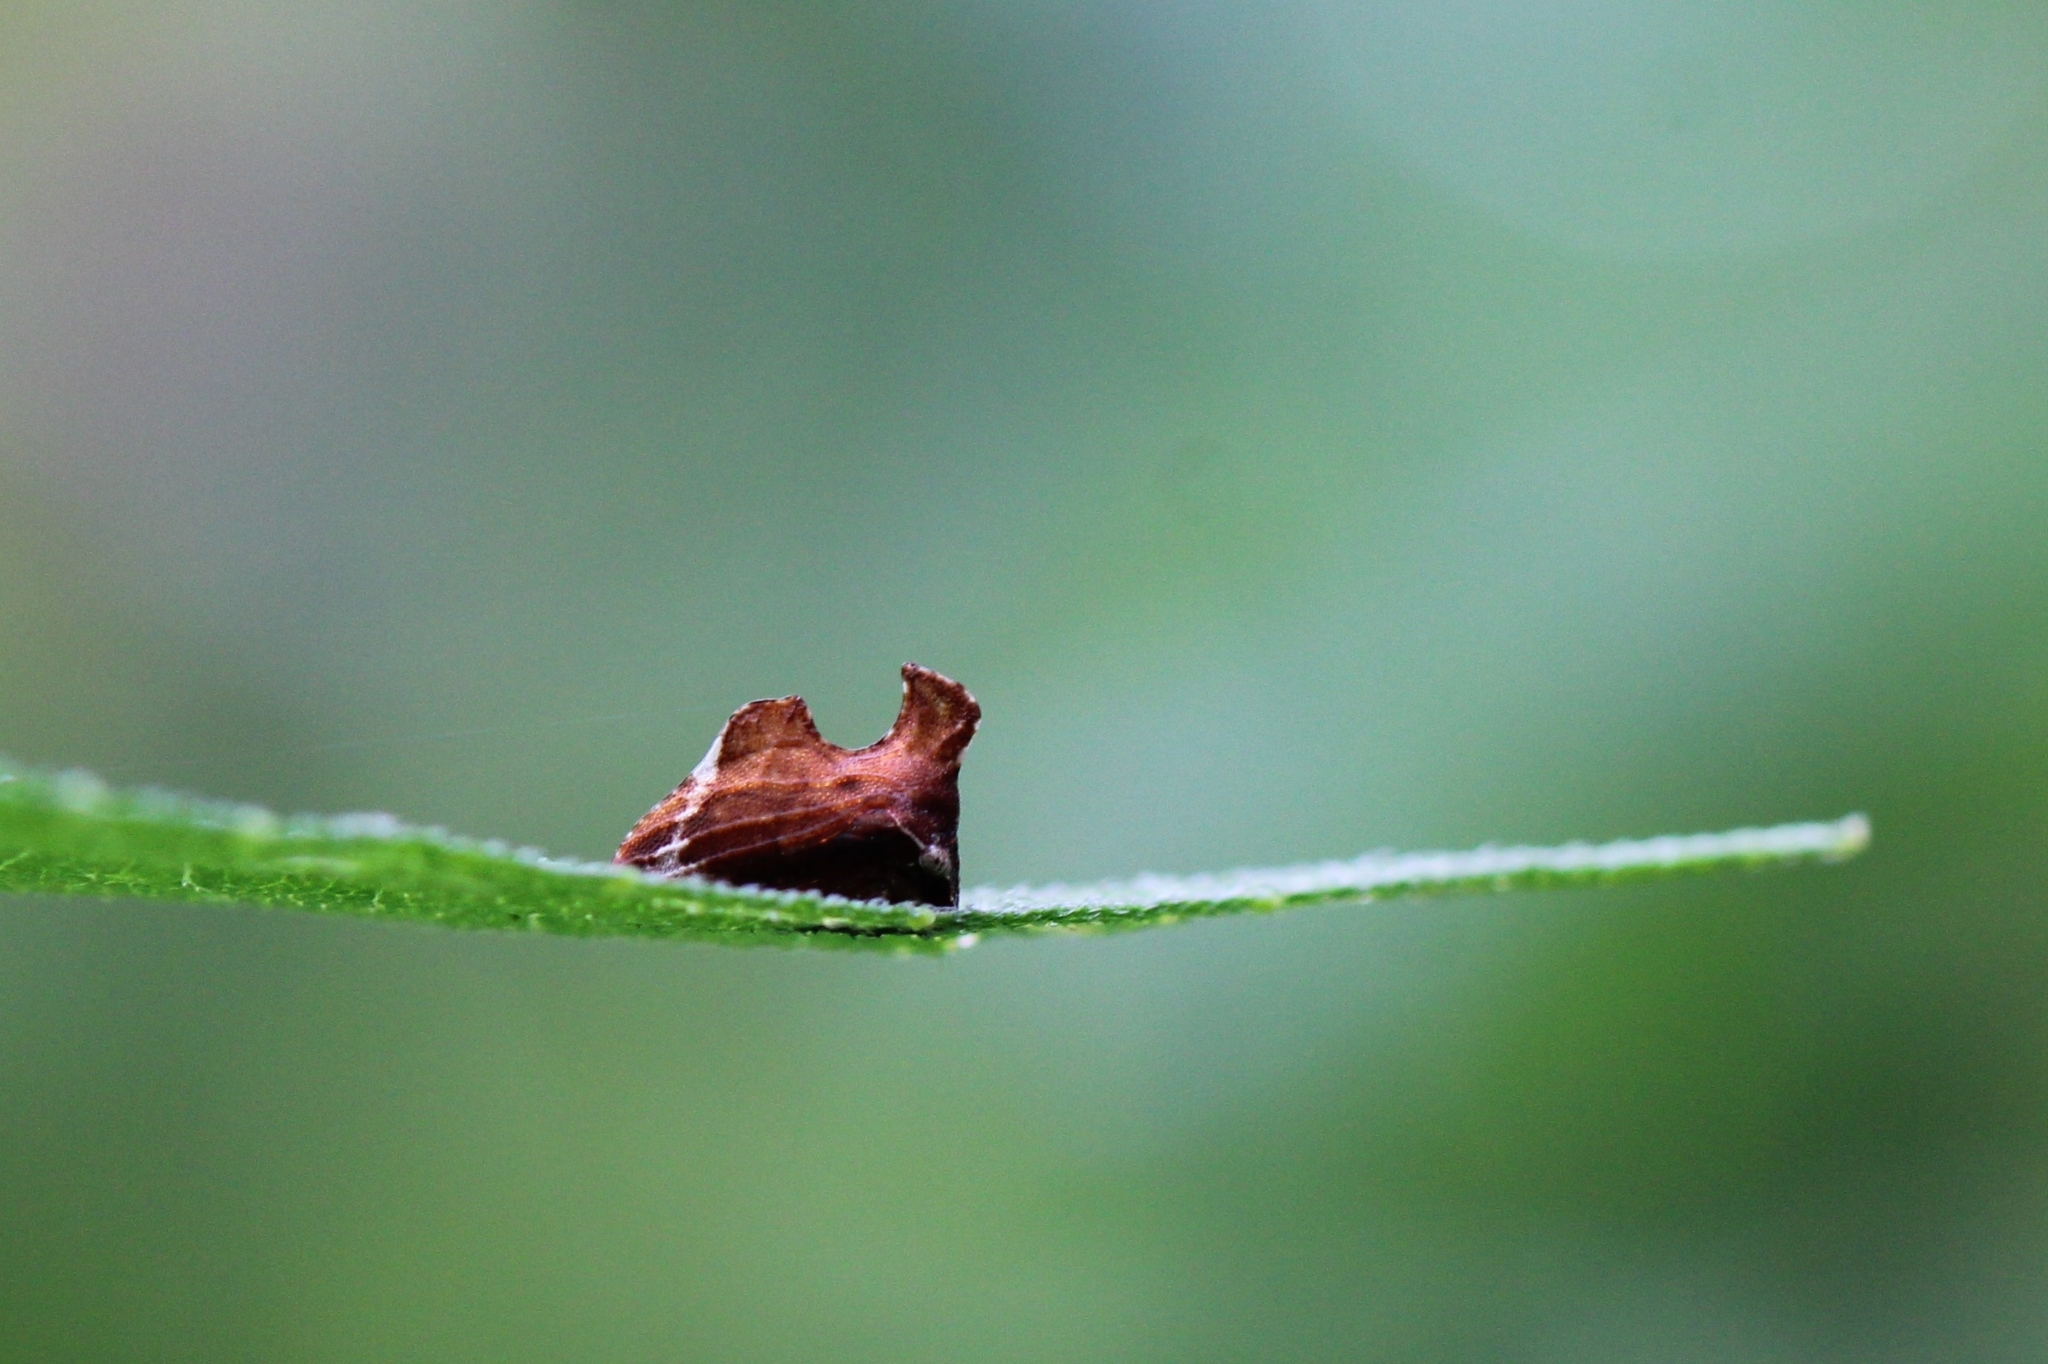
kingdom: Animalia
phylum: Arthropoda
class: Insecta
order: Hemiptera
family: Membracidae
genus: Entylia
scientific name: Entylia carinata
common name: Keeled treehopper
